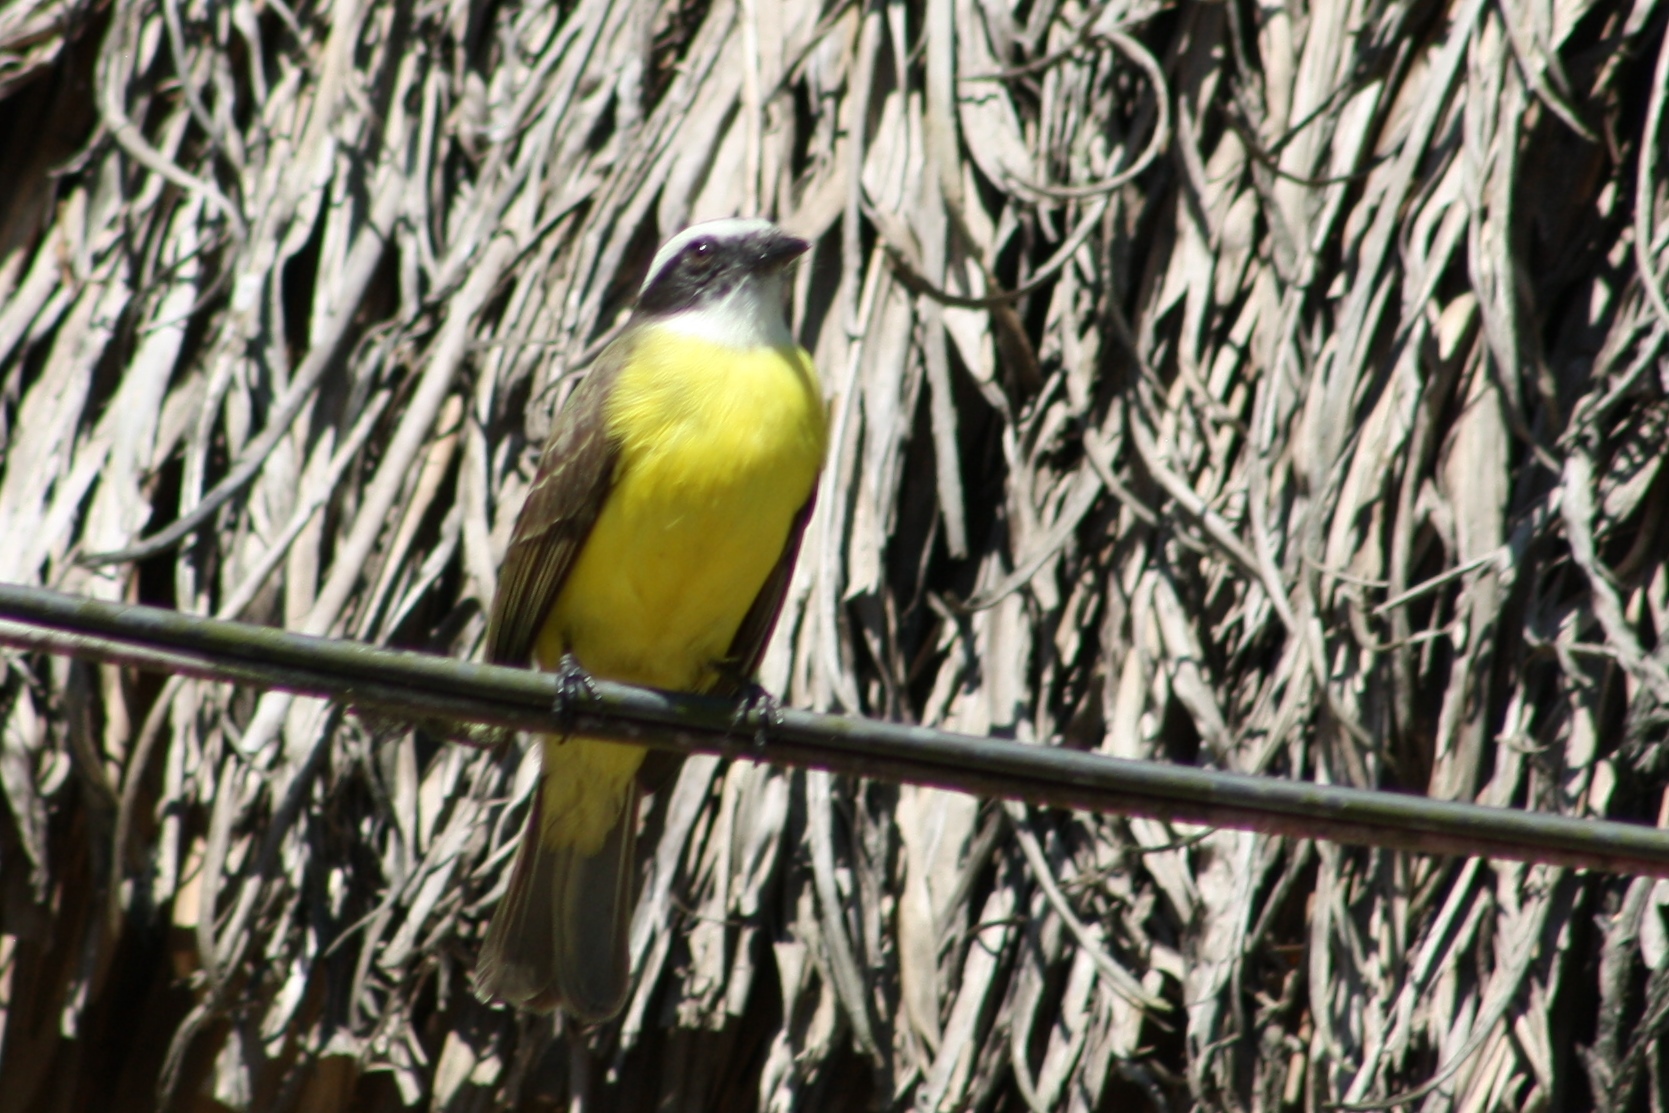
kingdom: Animalia
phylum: Chordata
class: Aves
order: Passeriformes
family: Tyrannidae
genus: Myiozetetes
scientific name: Myiozetetes similis
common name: Social flycatcher
